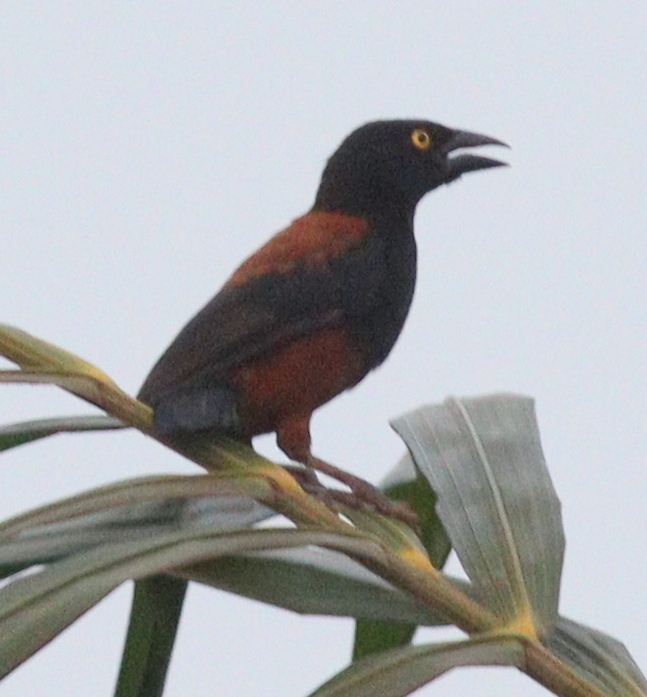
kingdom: Animalia
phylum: Chordata
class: Aves
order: Passeriformes
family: Ploceidae
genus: Ploceus
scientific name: Ploceus castaneofuscus
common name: Chestnut-and-black weaver
